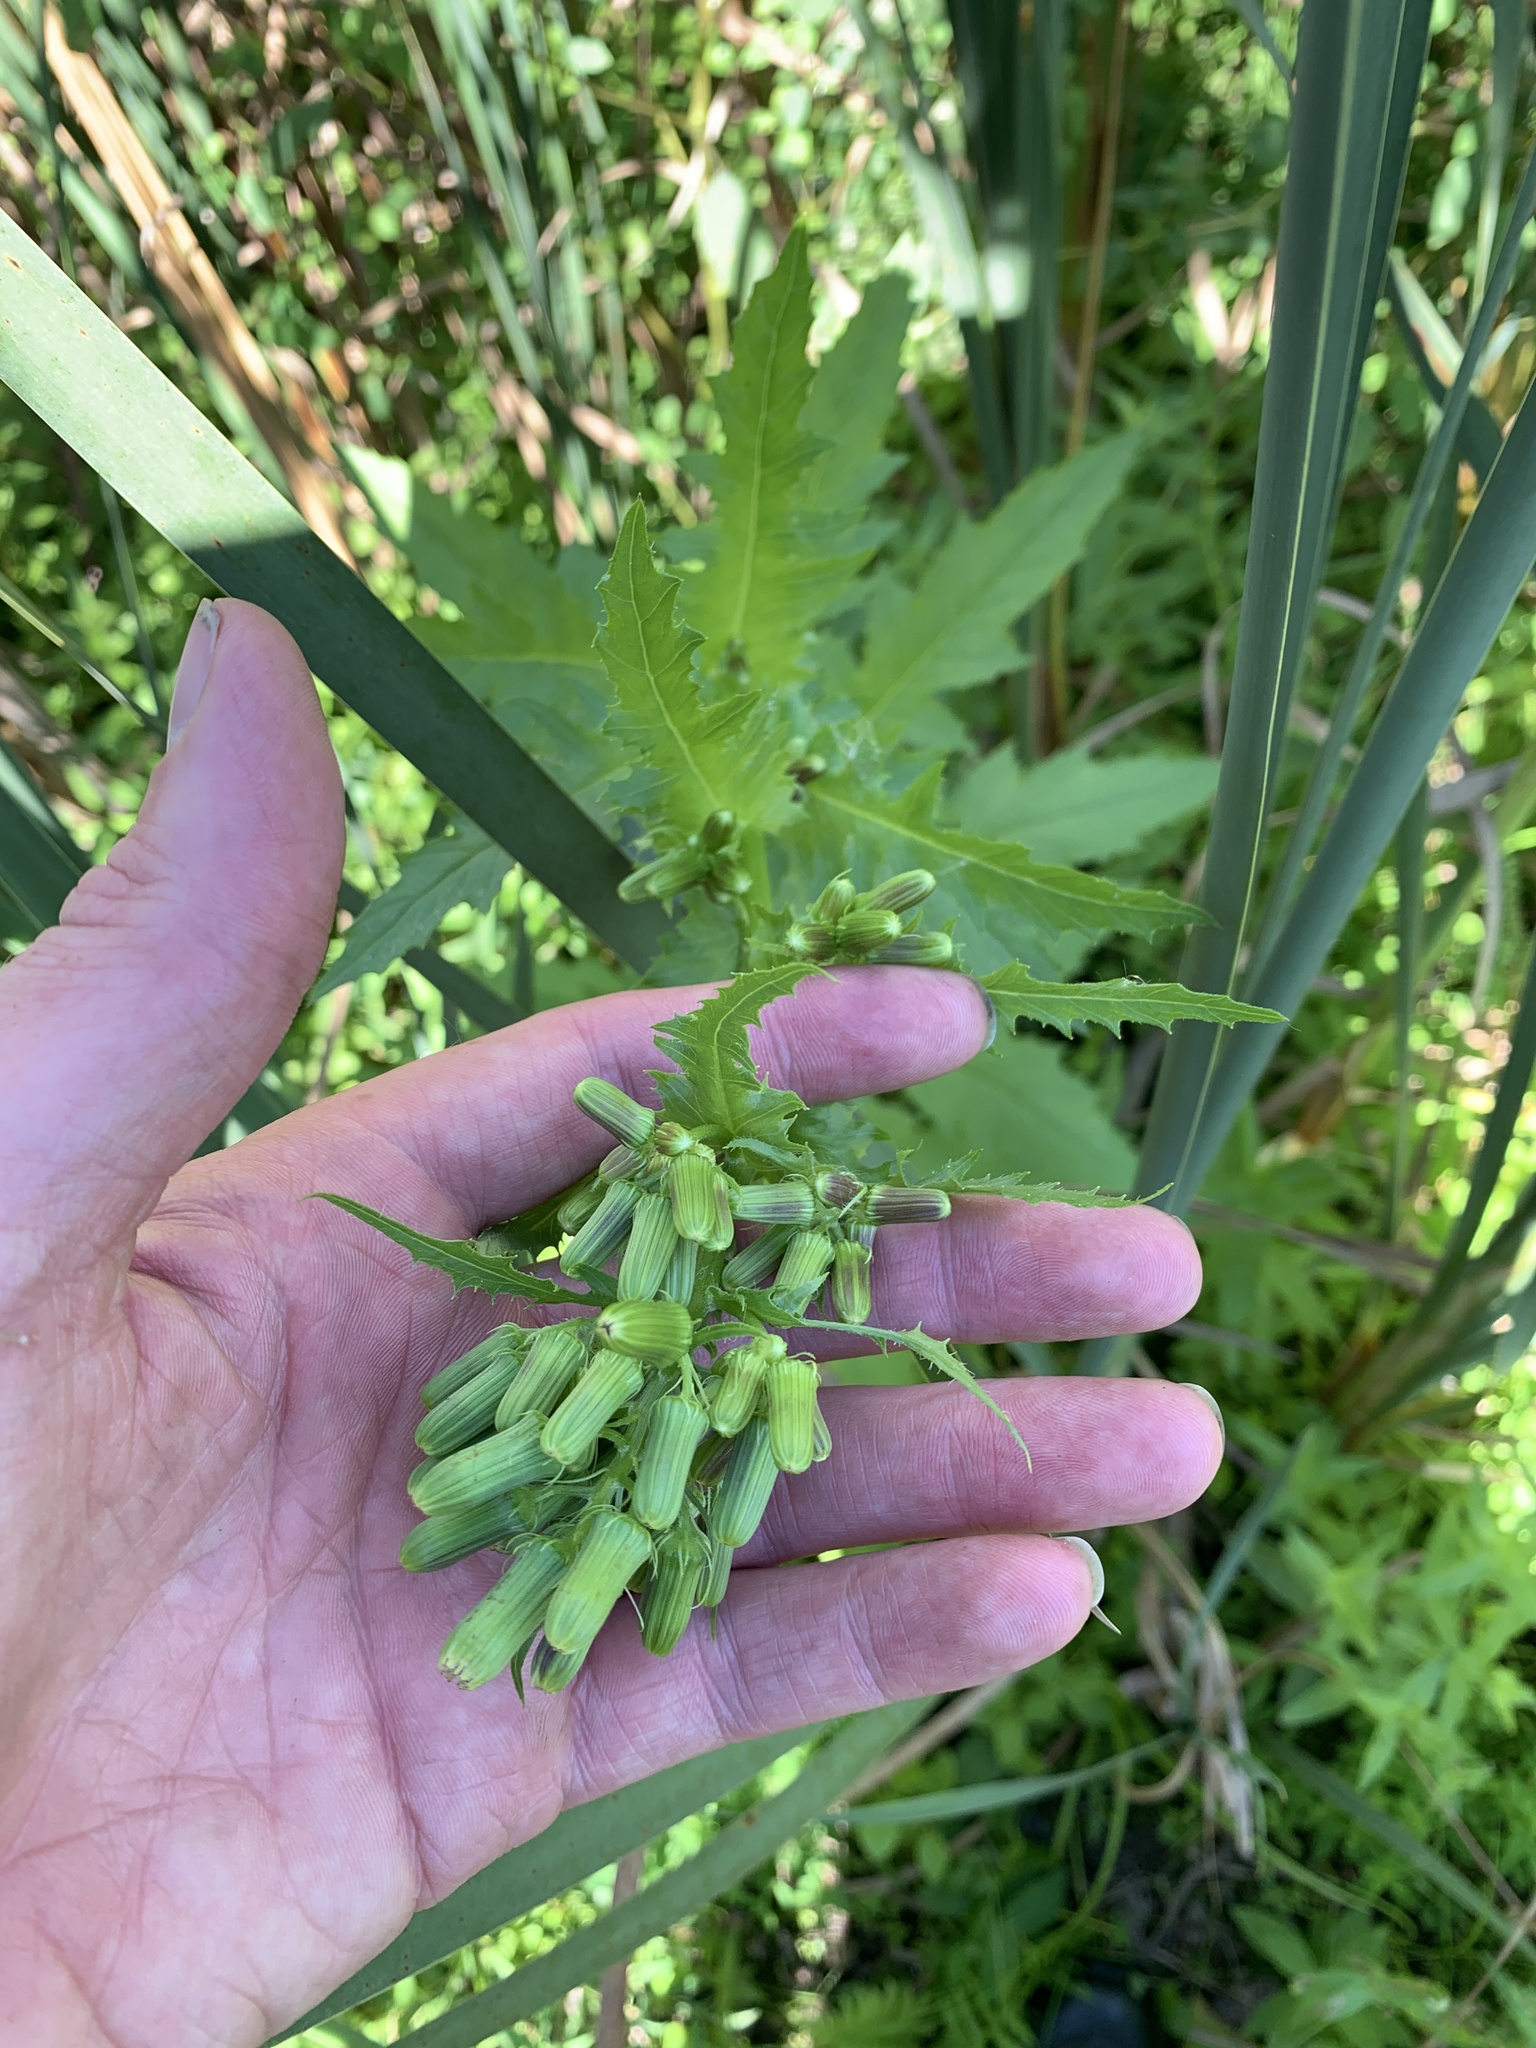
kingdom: Plantae
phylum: Tracheophyta
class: Magnoliopsida
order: Asterales
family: Asteraceae
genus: Erechtites
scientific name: Erechtites hieraciifolius
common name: American burnweed
